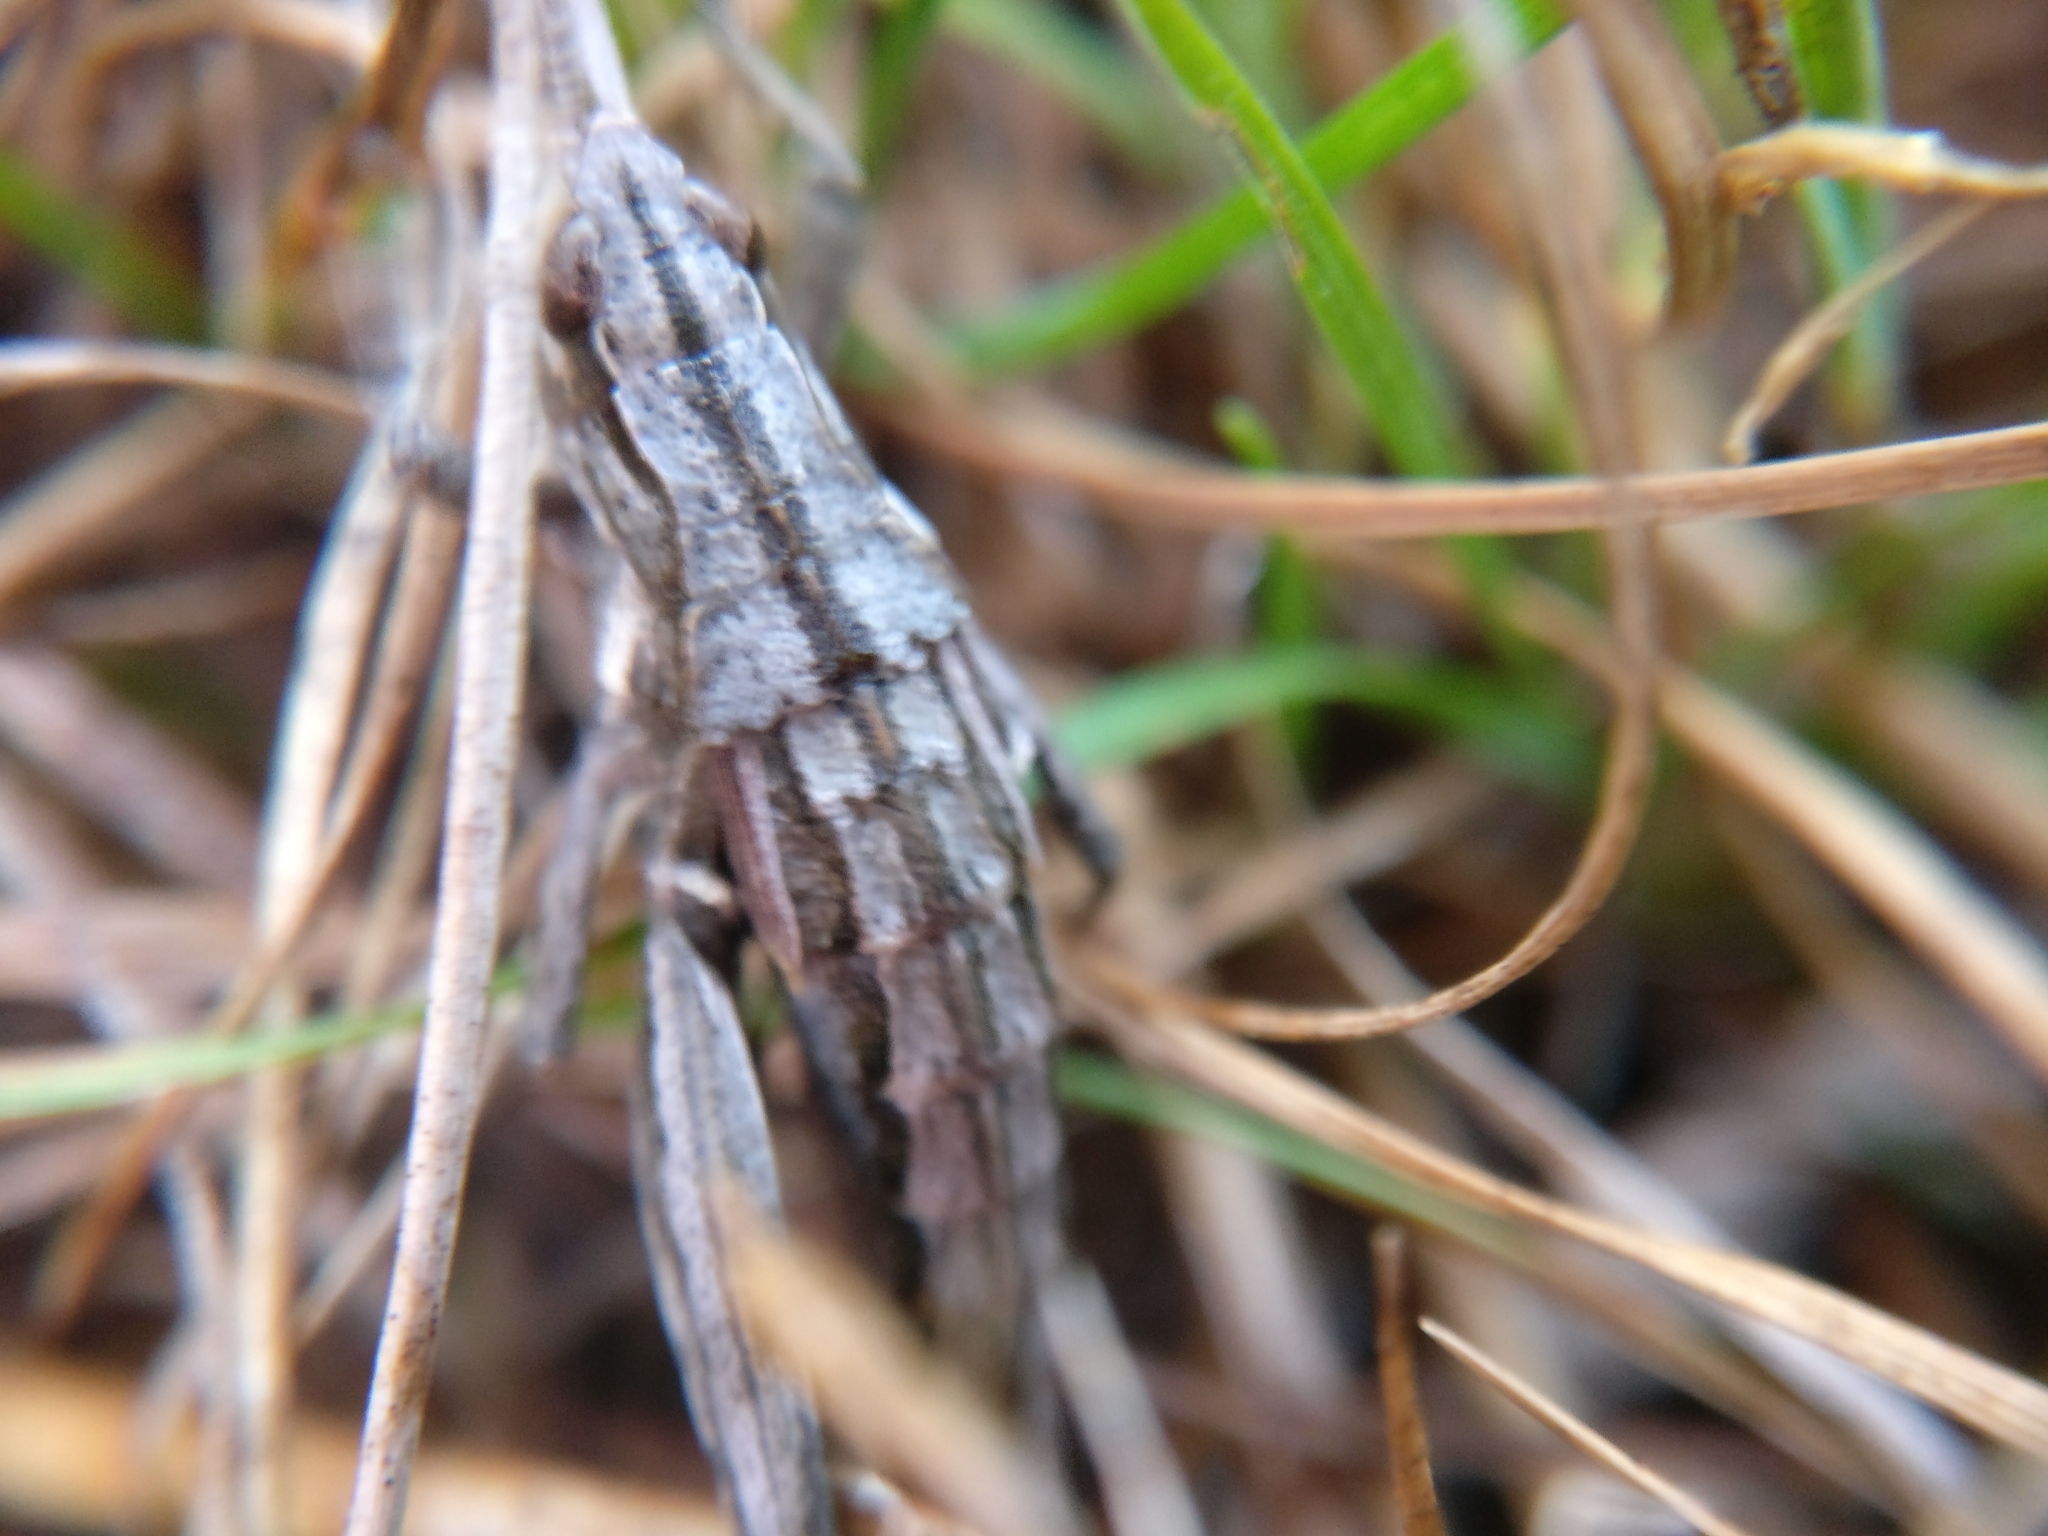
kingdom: Animalia
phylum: Arthropoda
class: Insecta
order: Orthoptera
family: Acrididae
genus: Sigaus
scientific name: Sigaus campestris
